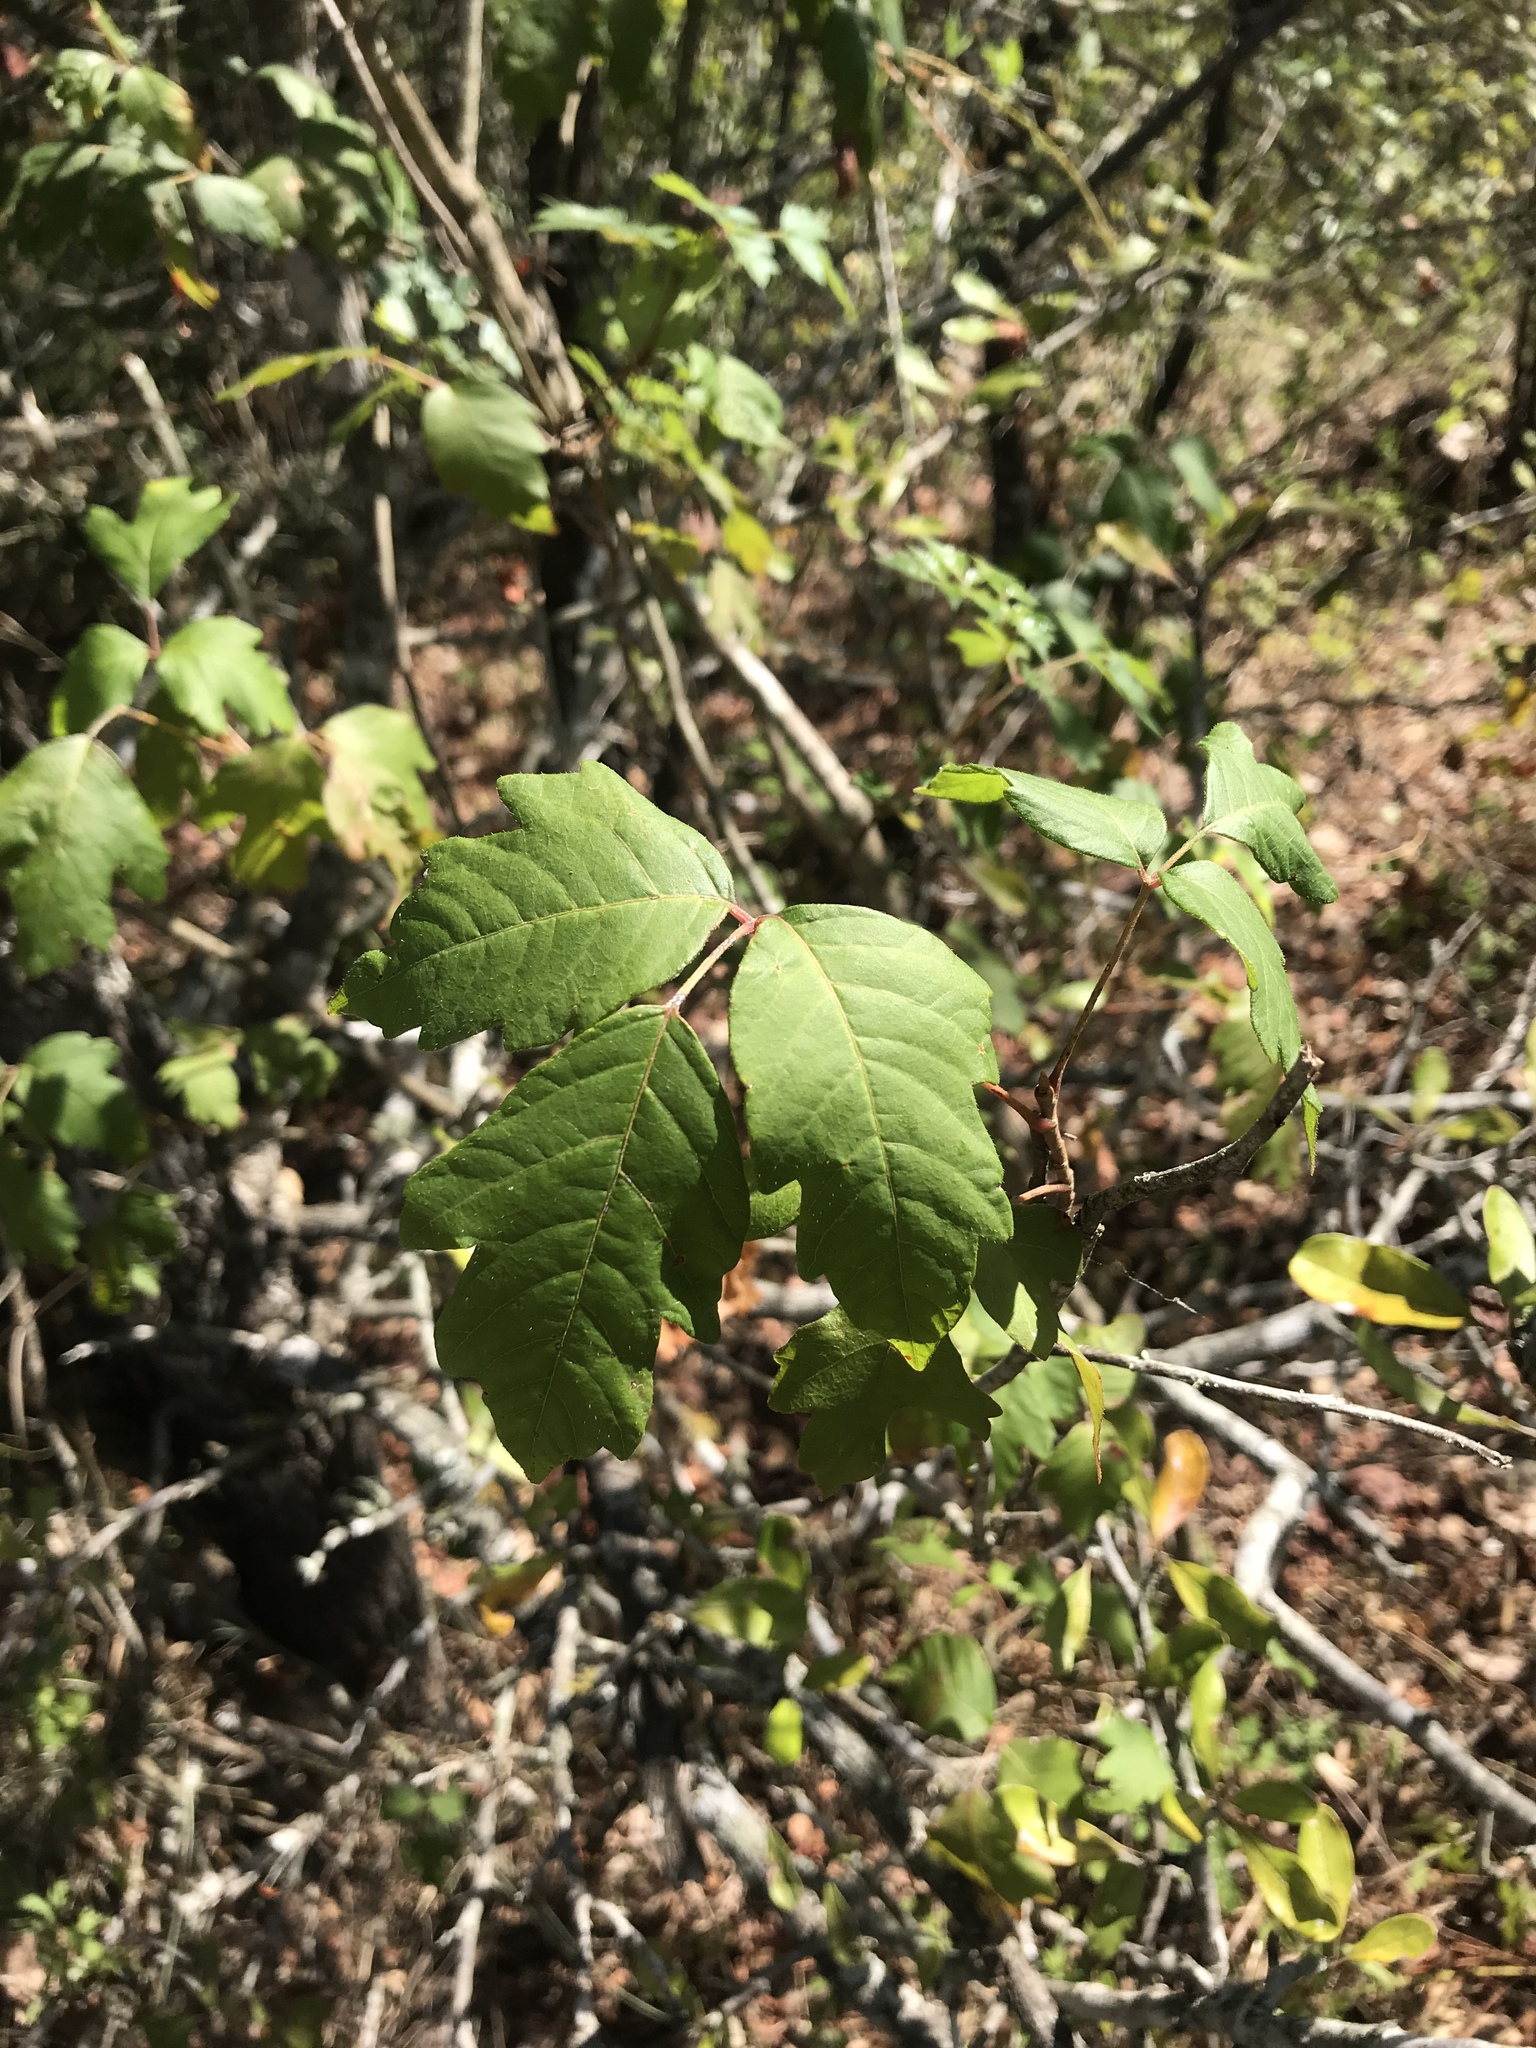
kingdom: Plantae
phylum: Tracheophyta
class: Magnoliopsida
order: Sapindales
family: Anacardiaceae
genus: Toxicodendron
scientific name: Toxicodendron radicans
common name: Poison ivy
